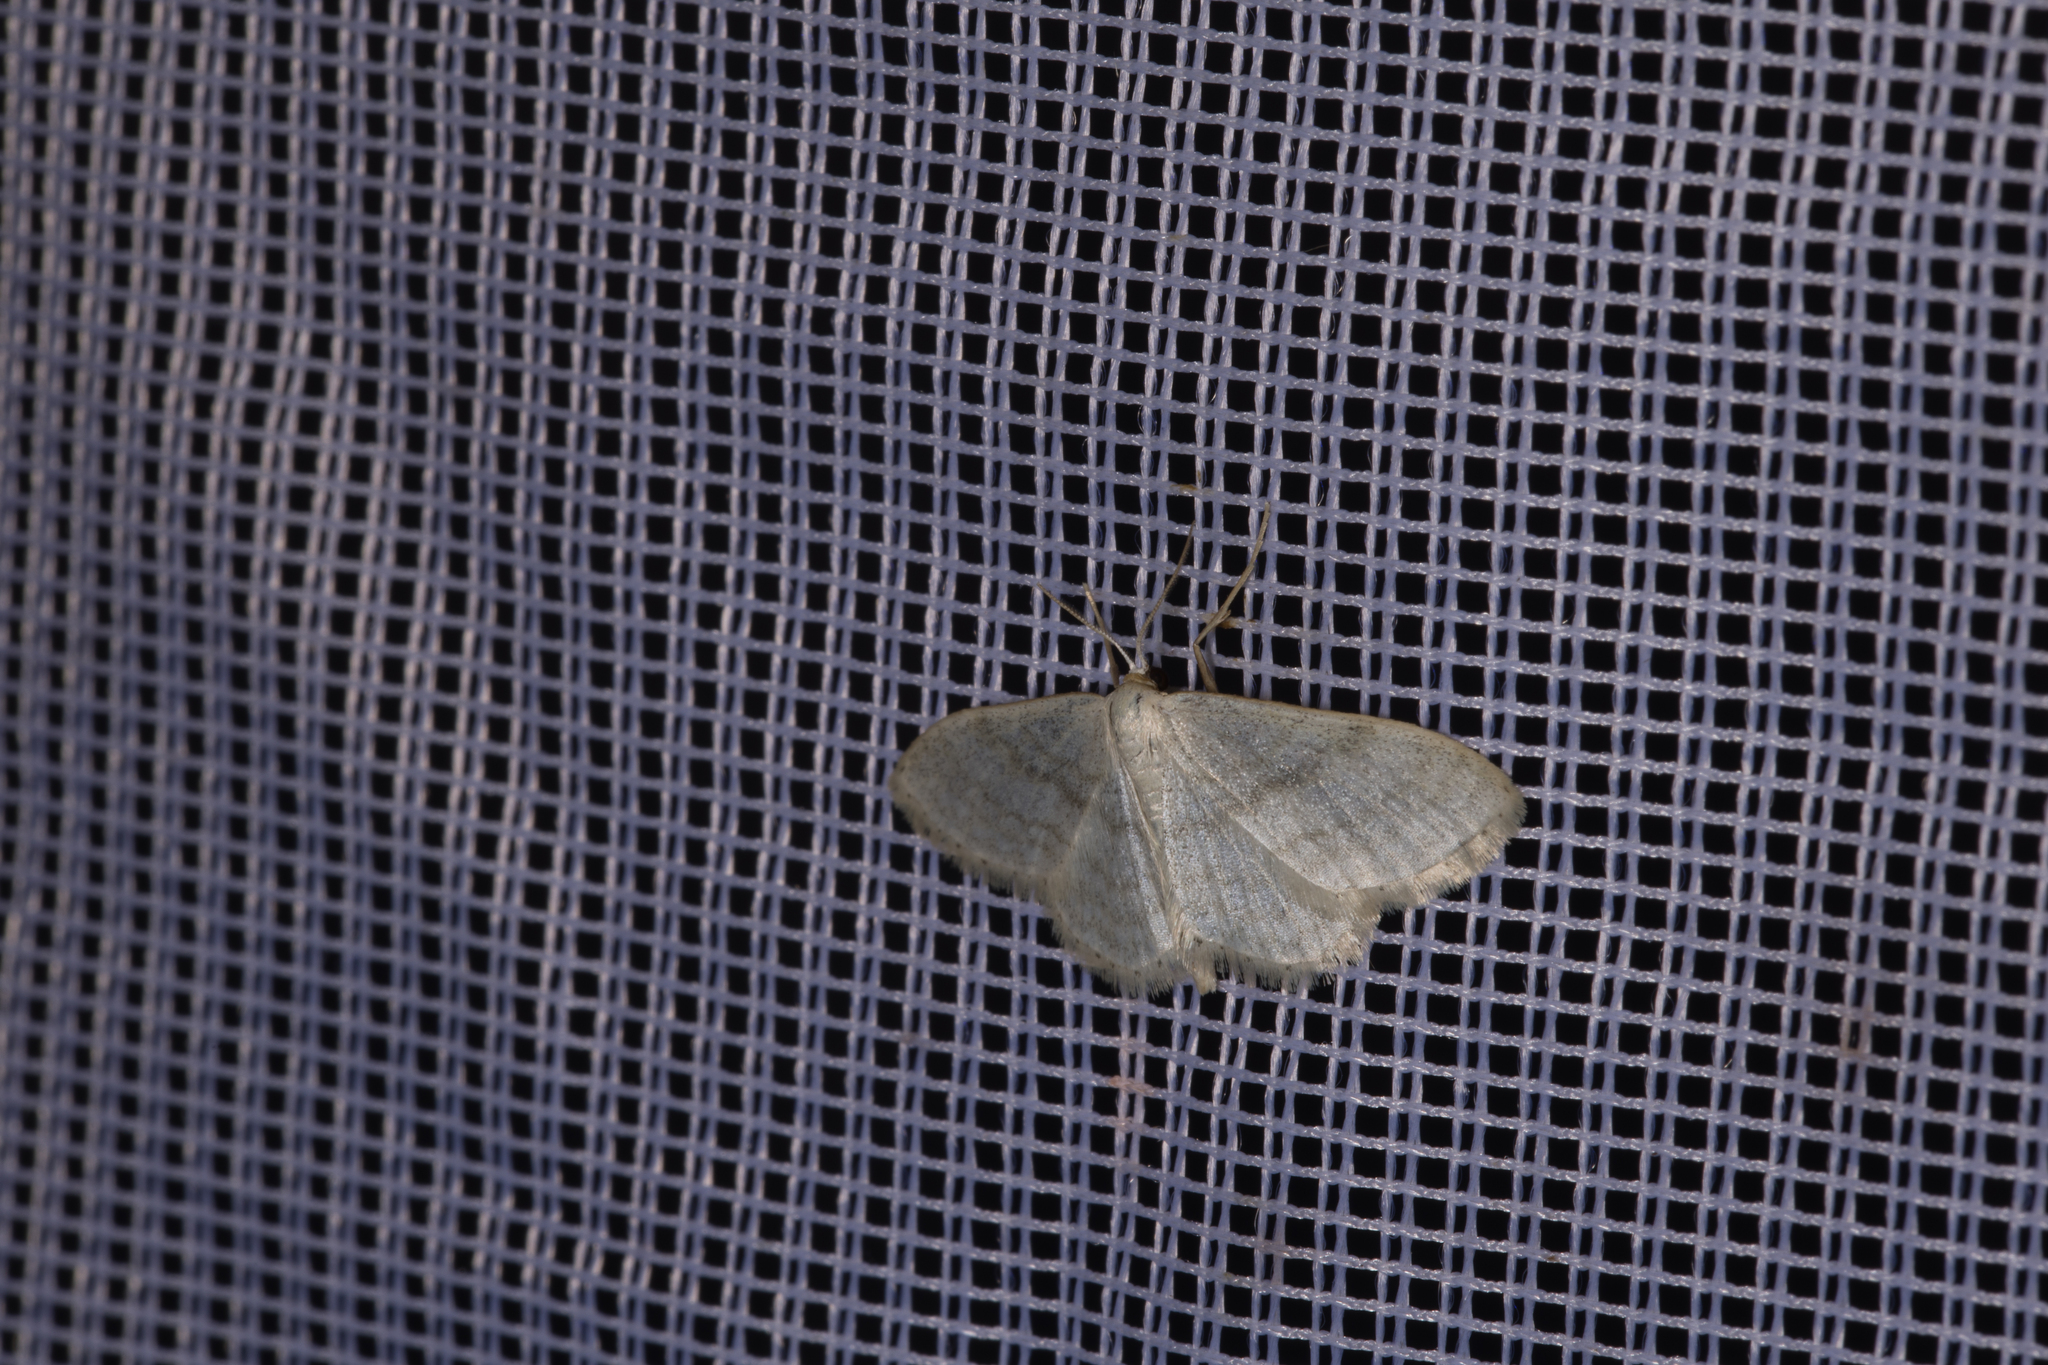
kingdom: Animalia
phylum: Arthropoda
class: Insecta
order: Lepidoptera
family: Geometridae
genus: Idaea
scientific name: Idaea subsericeata
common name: Satin wave
